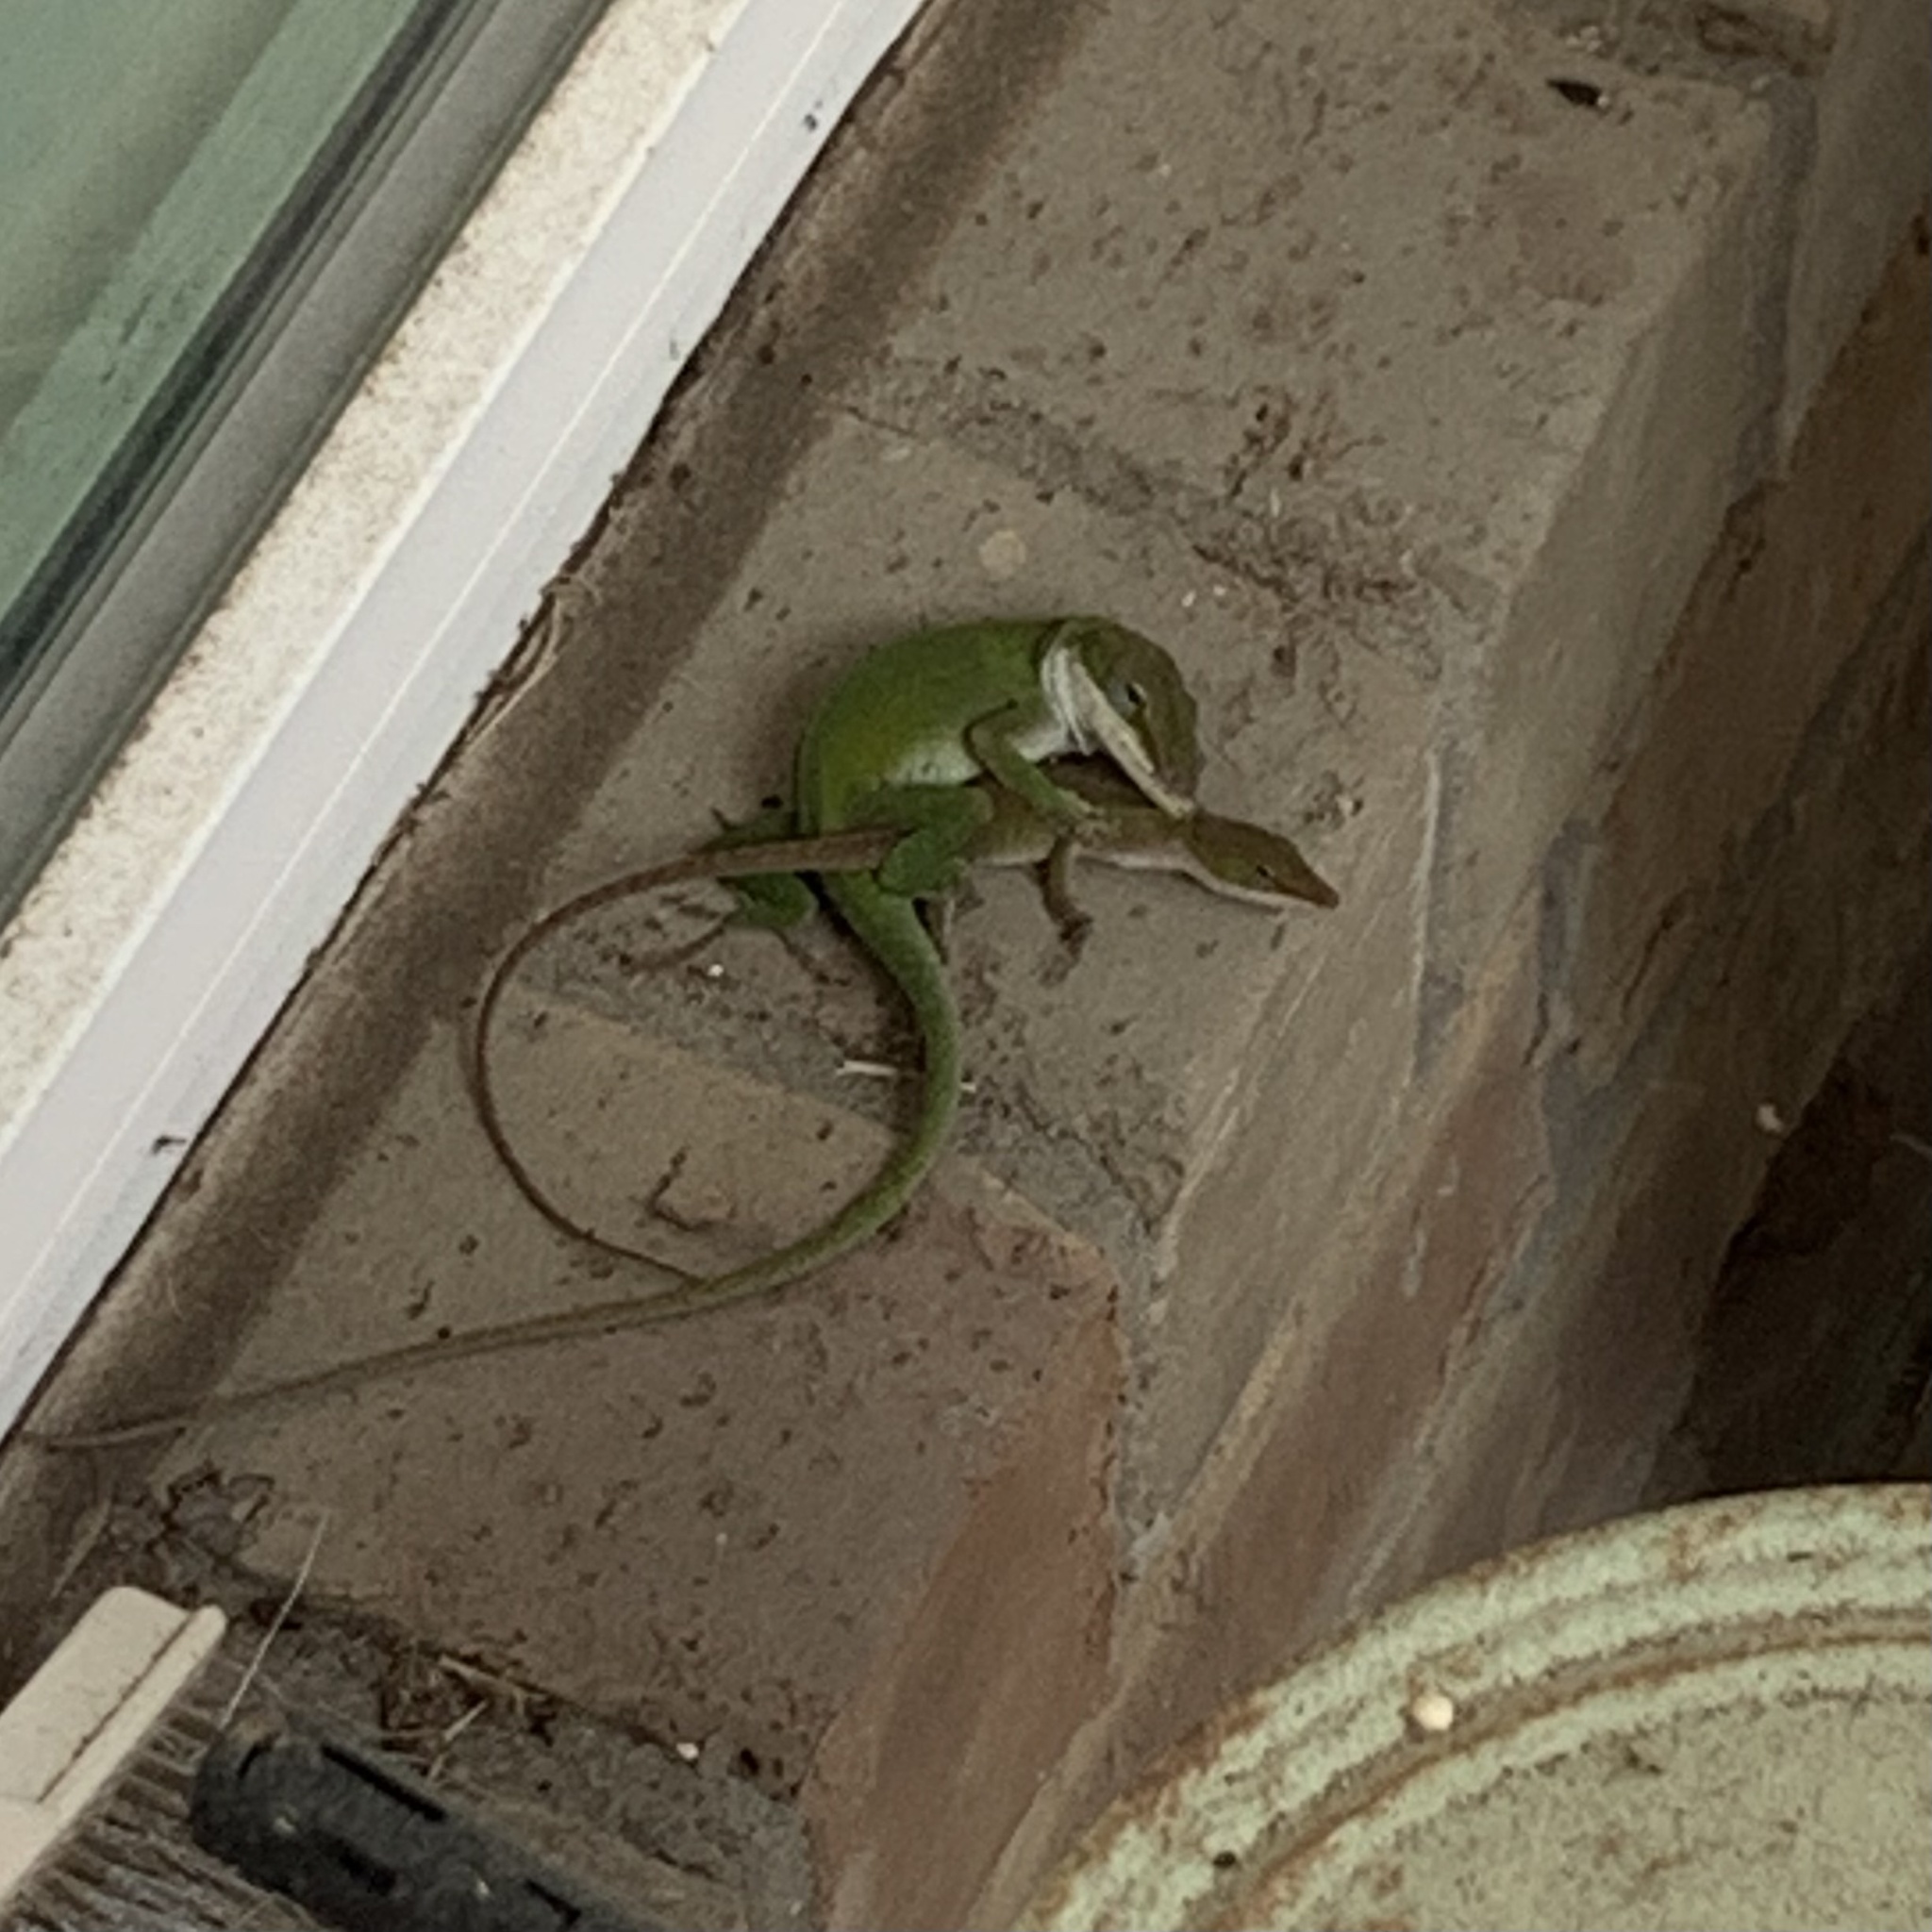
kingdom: Animalia
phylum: Chordata
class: Squamata
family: Dactyloidae
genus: Anolis
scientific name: Anolis carolinensis
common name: Green anole
